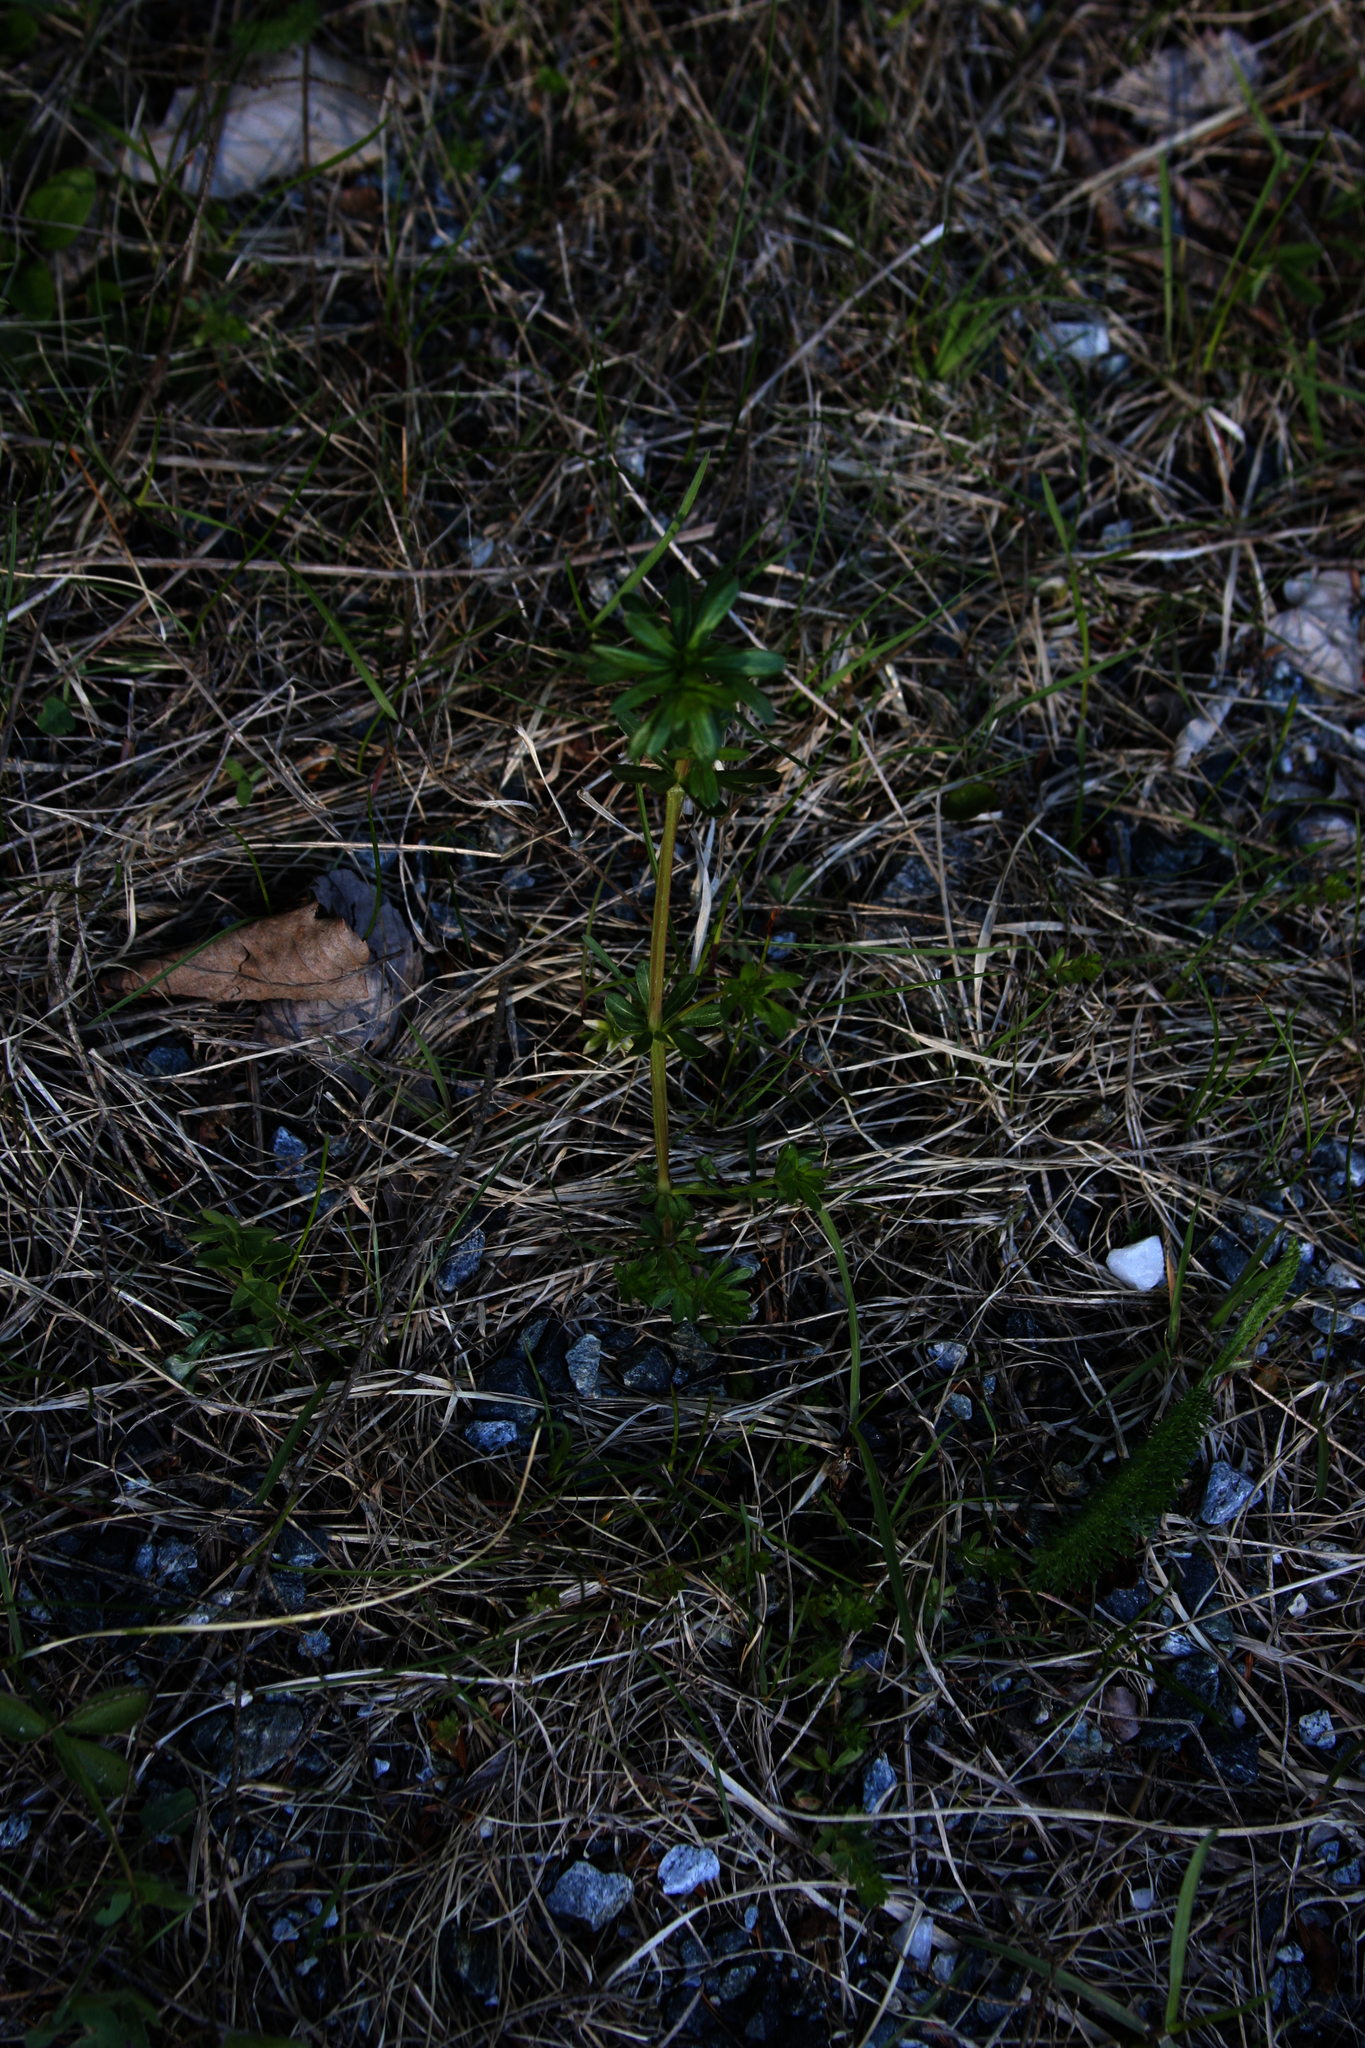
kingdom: Plantae
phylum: Tracheophyta
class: Magnoliopsida
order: Gentianales
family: Rubiaceae
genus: Galium
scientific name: Galium mollugo
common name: Hedge bedstraw
